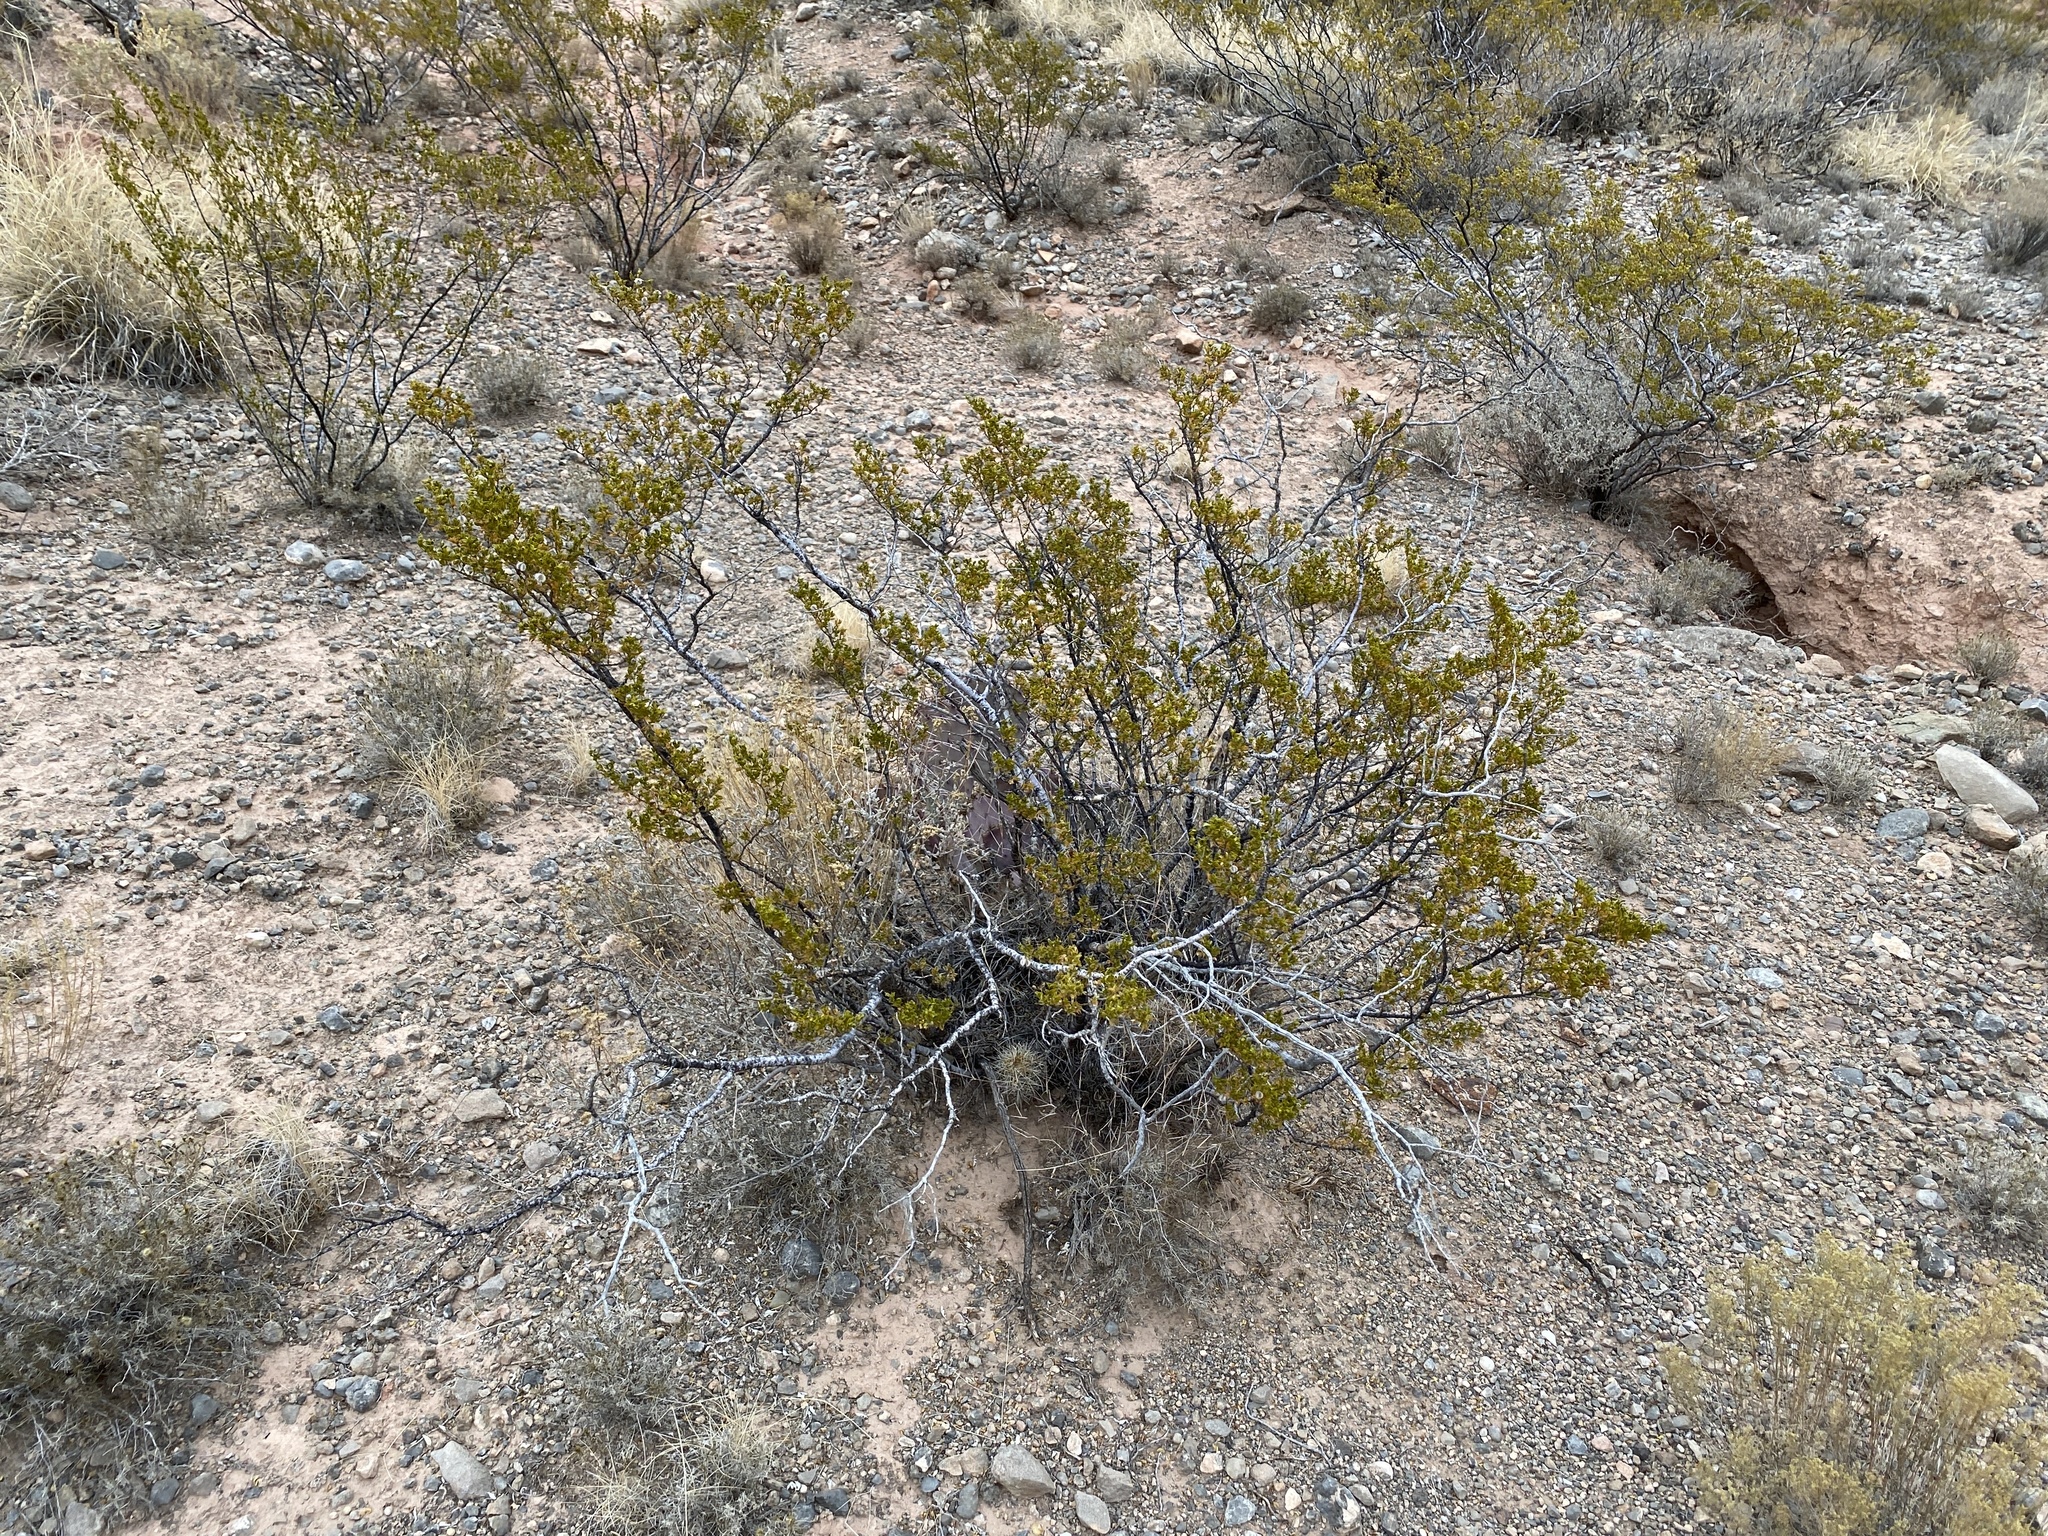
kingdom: Plantae
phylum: Tracheophyta
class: Magnoliopsida
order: Zygophyllales
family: Zygophyllaceae
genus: Larrea
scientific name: Larrea tridentata
